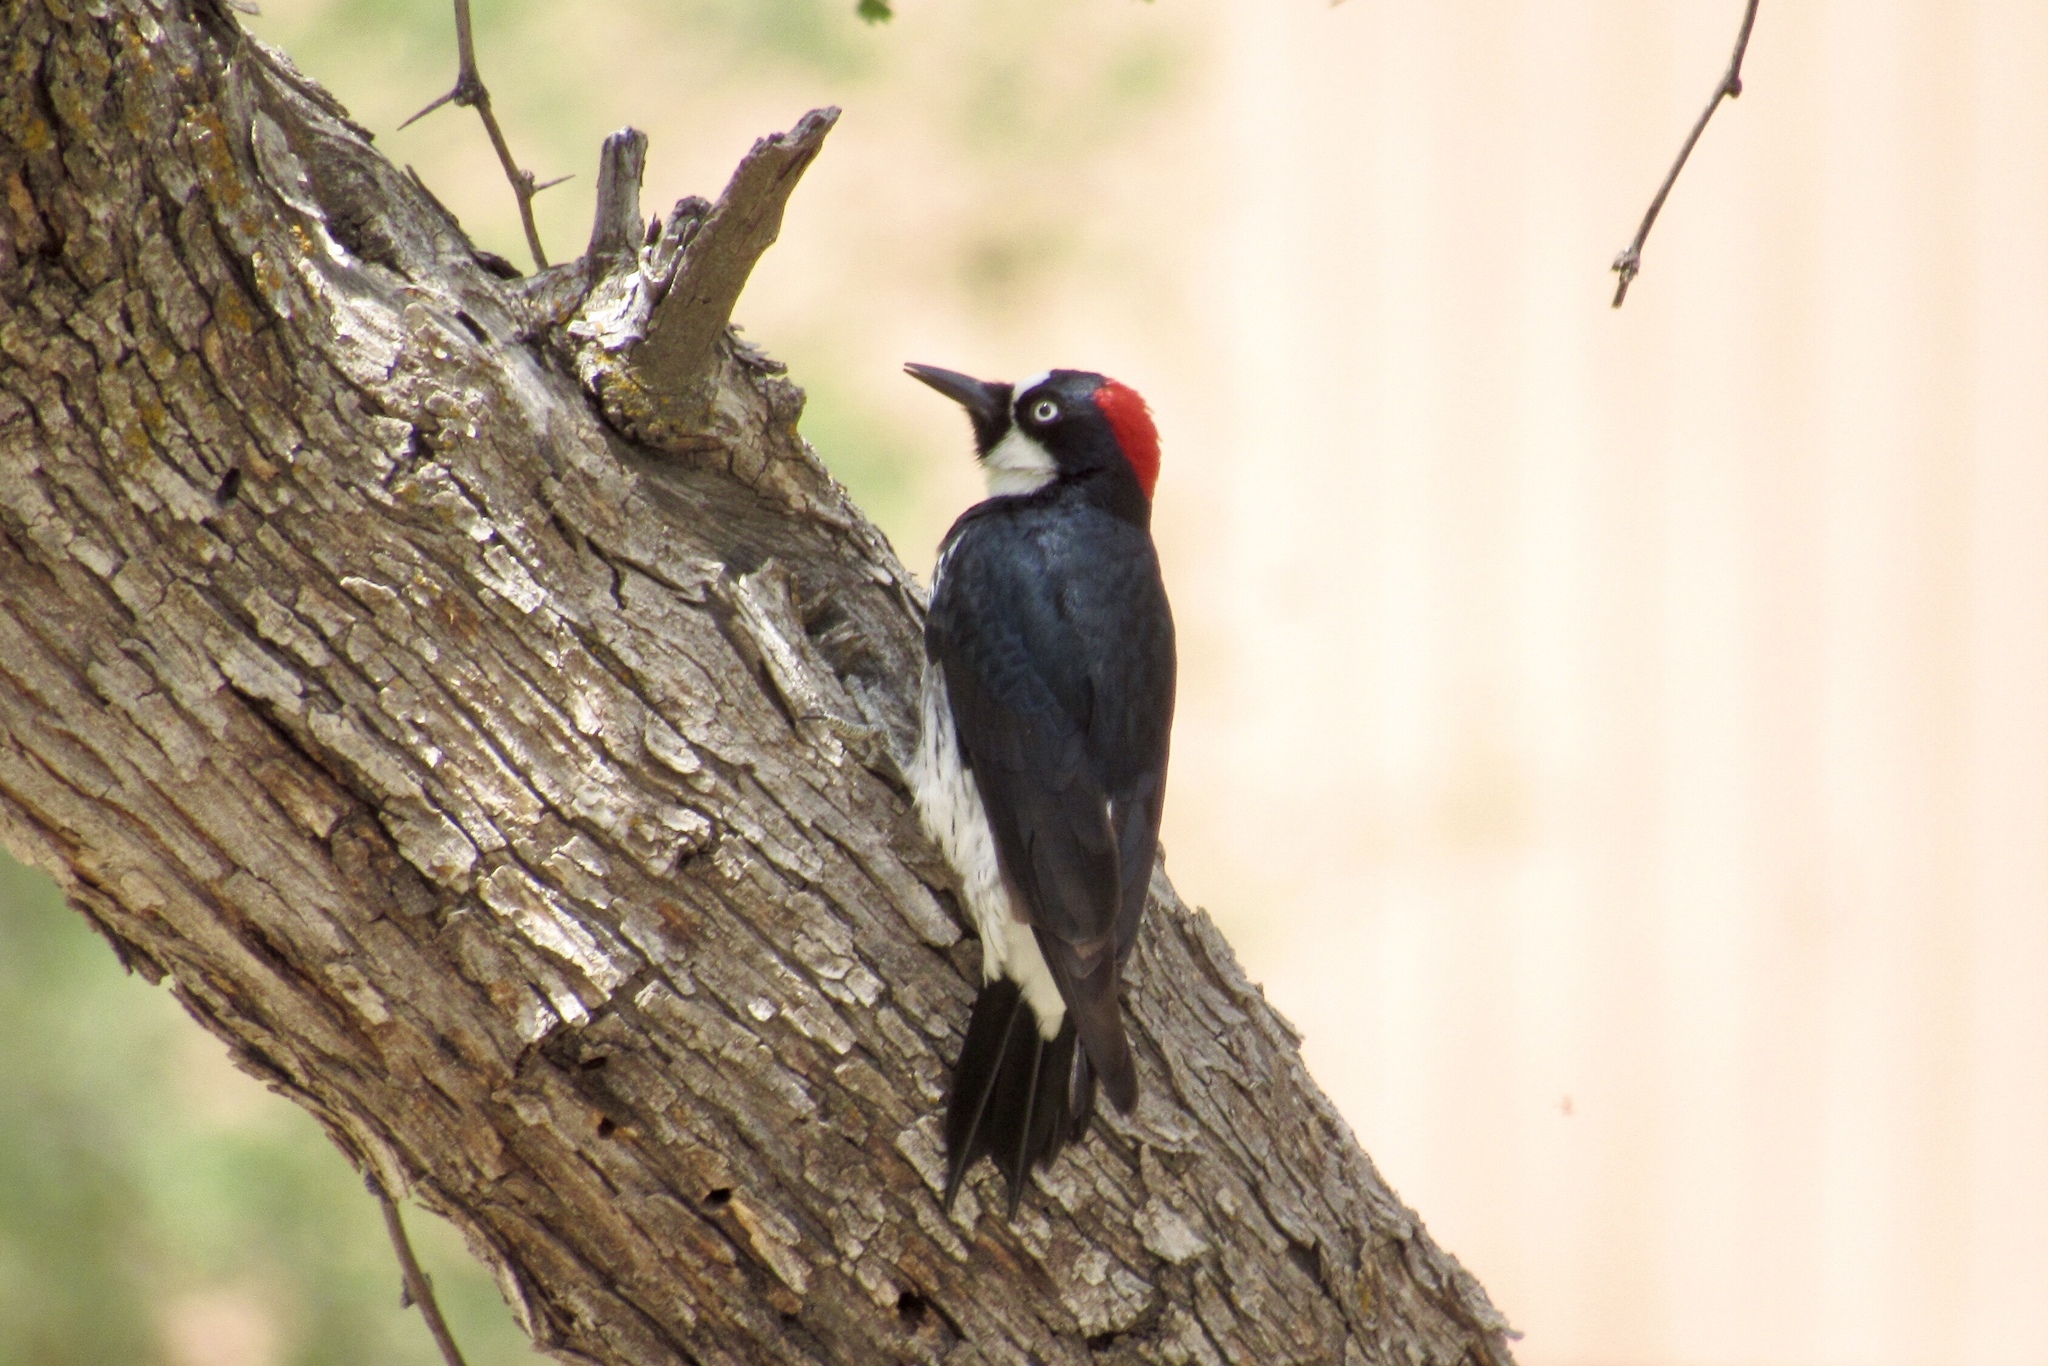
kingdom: Animalia
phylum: Chordata
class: Aves
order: Piciformes
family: Picidae
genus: Melanerpes
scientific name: Melanerpes formicivorus
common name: Acorn woodpecker
